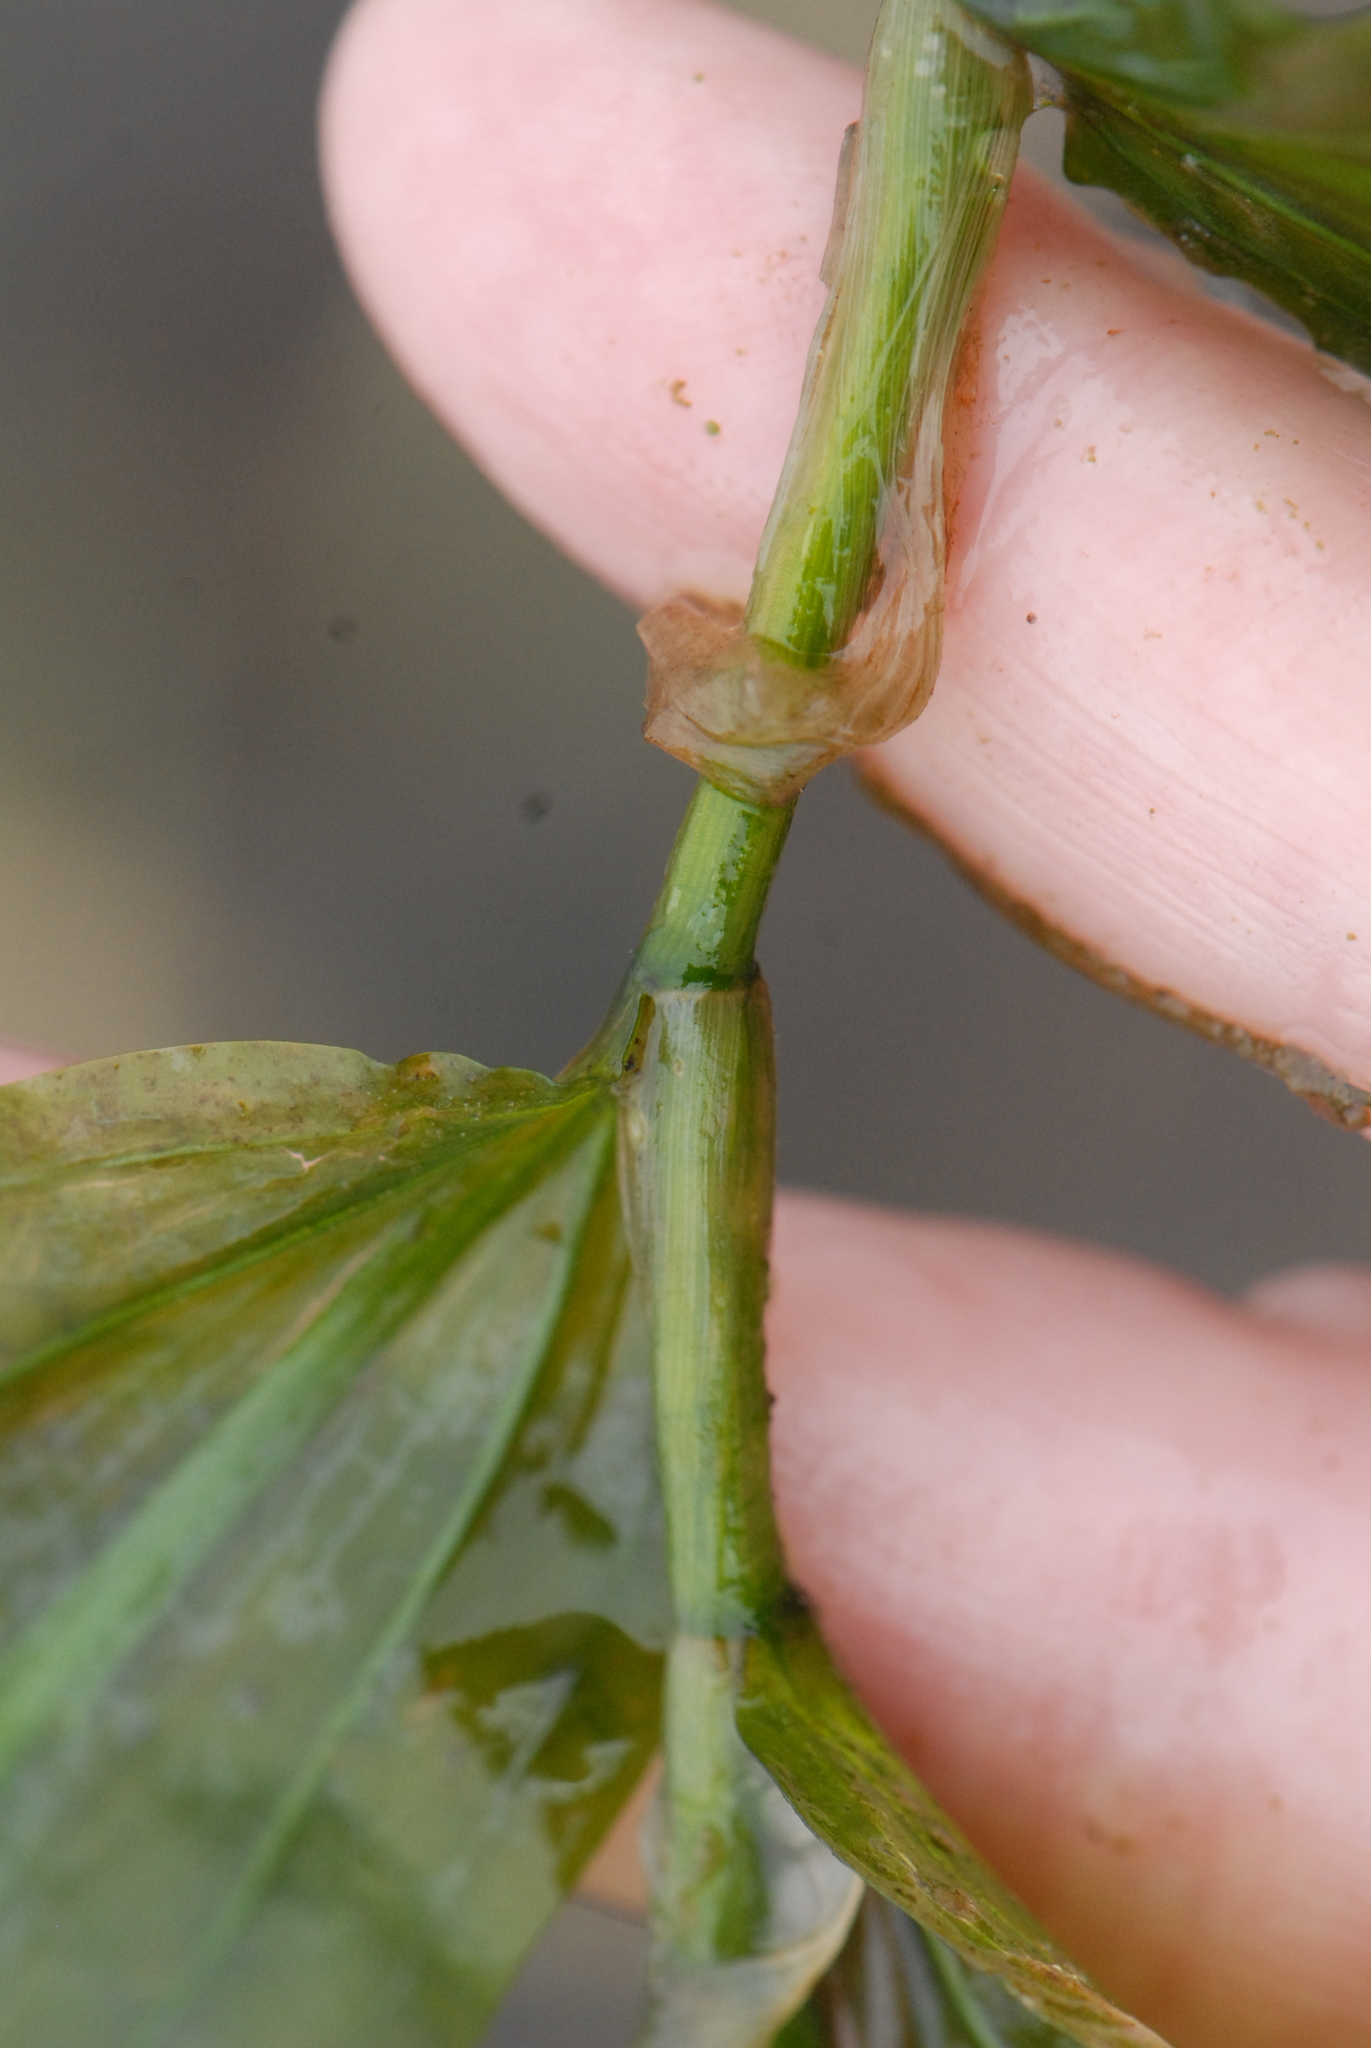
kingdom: Plantae
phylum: Tracheophyta
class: Liliopsida
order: Alismatales
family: Potamogetonaceae
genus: Potamogeton
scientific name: Potamogeton praelongus
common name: Long-stalked pondweed
